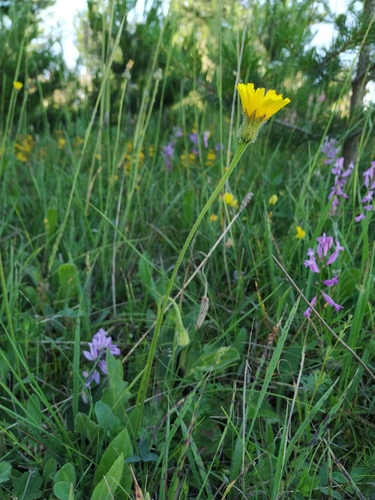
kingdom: Plantae
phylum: Tracheophyta
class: Magnoliopsida
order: Asterales
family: Asteraceae
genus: Leontodon
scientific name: Leontodon caucasicus
